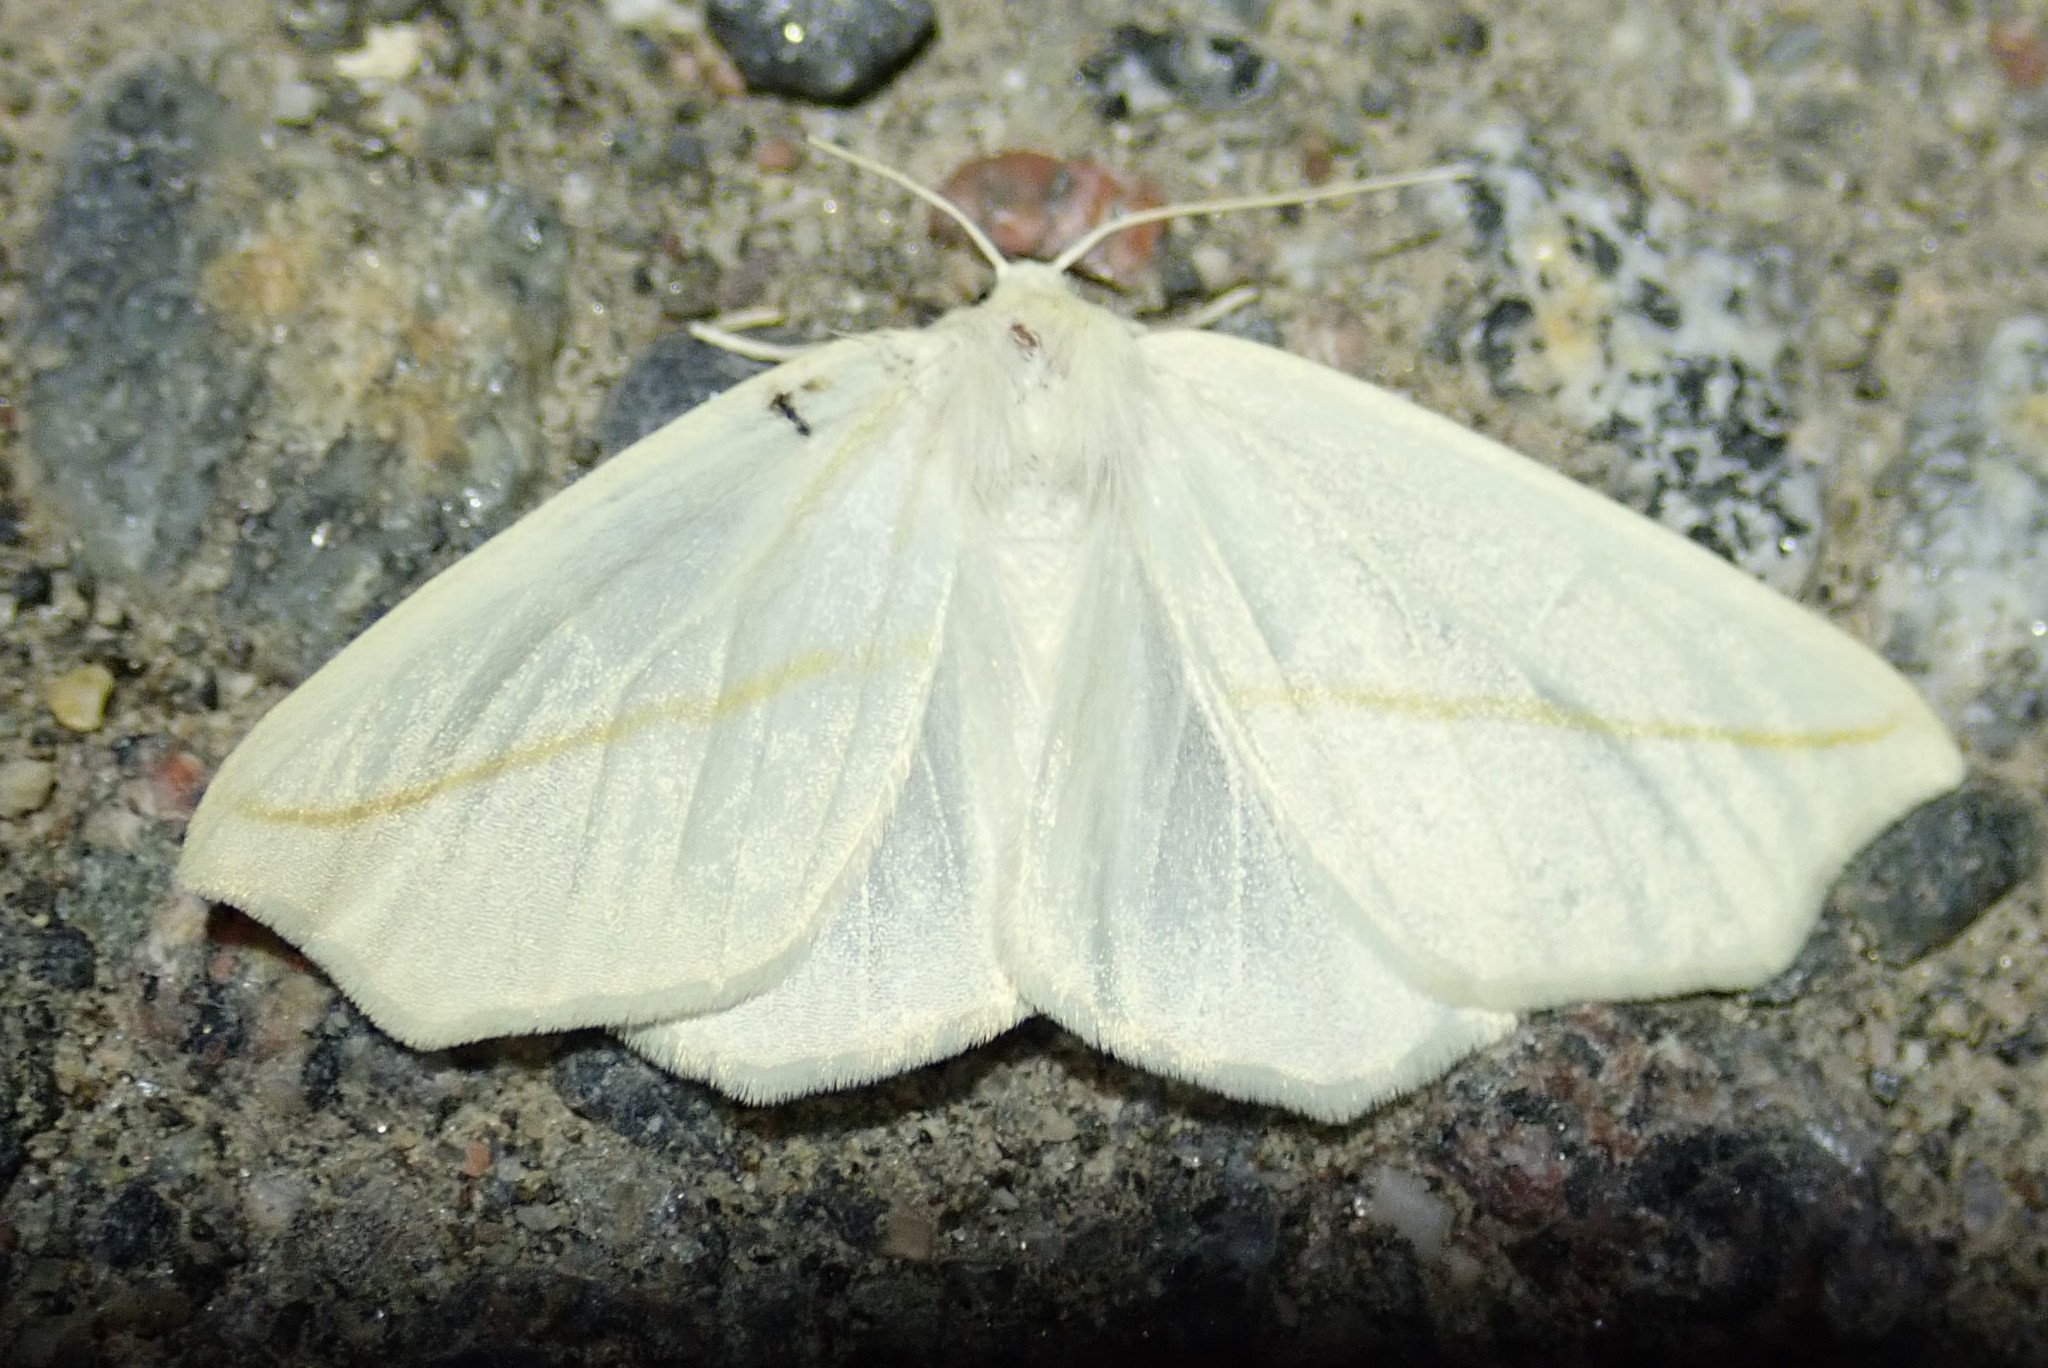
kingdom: Animalia
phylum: Arthropoda
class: Insecta
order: Lepidoptera
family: Geometridae
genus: Tetracis
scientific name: Tetracis cachexiata
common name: White slant-line
